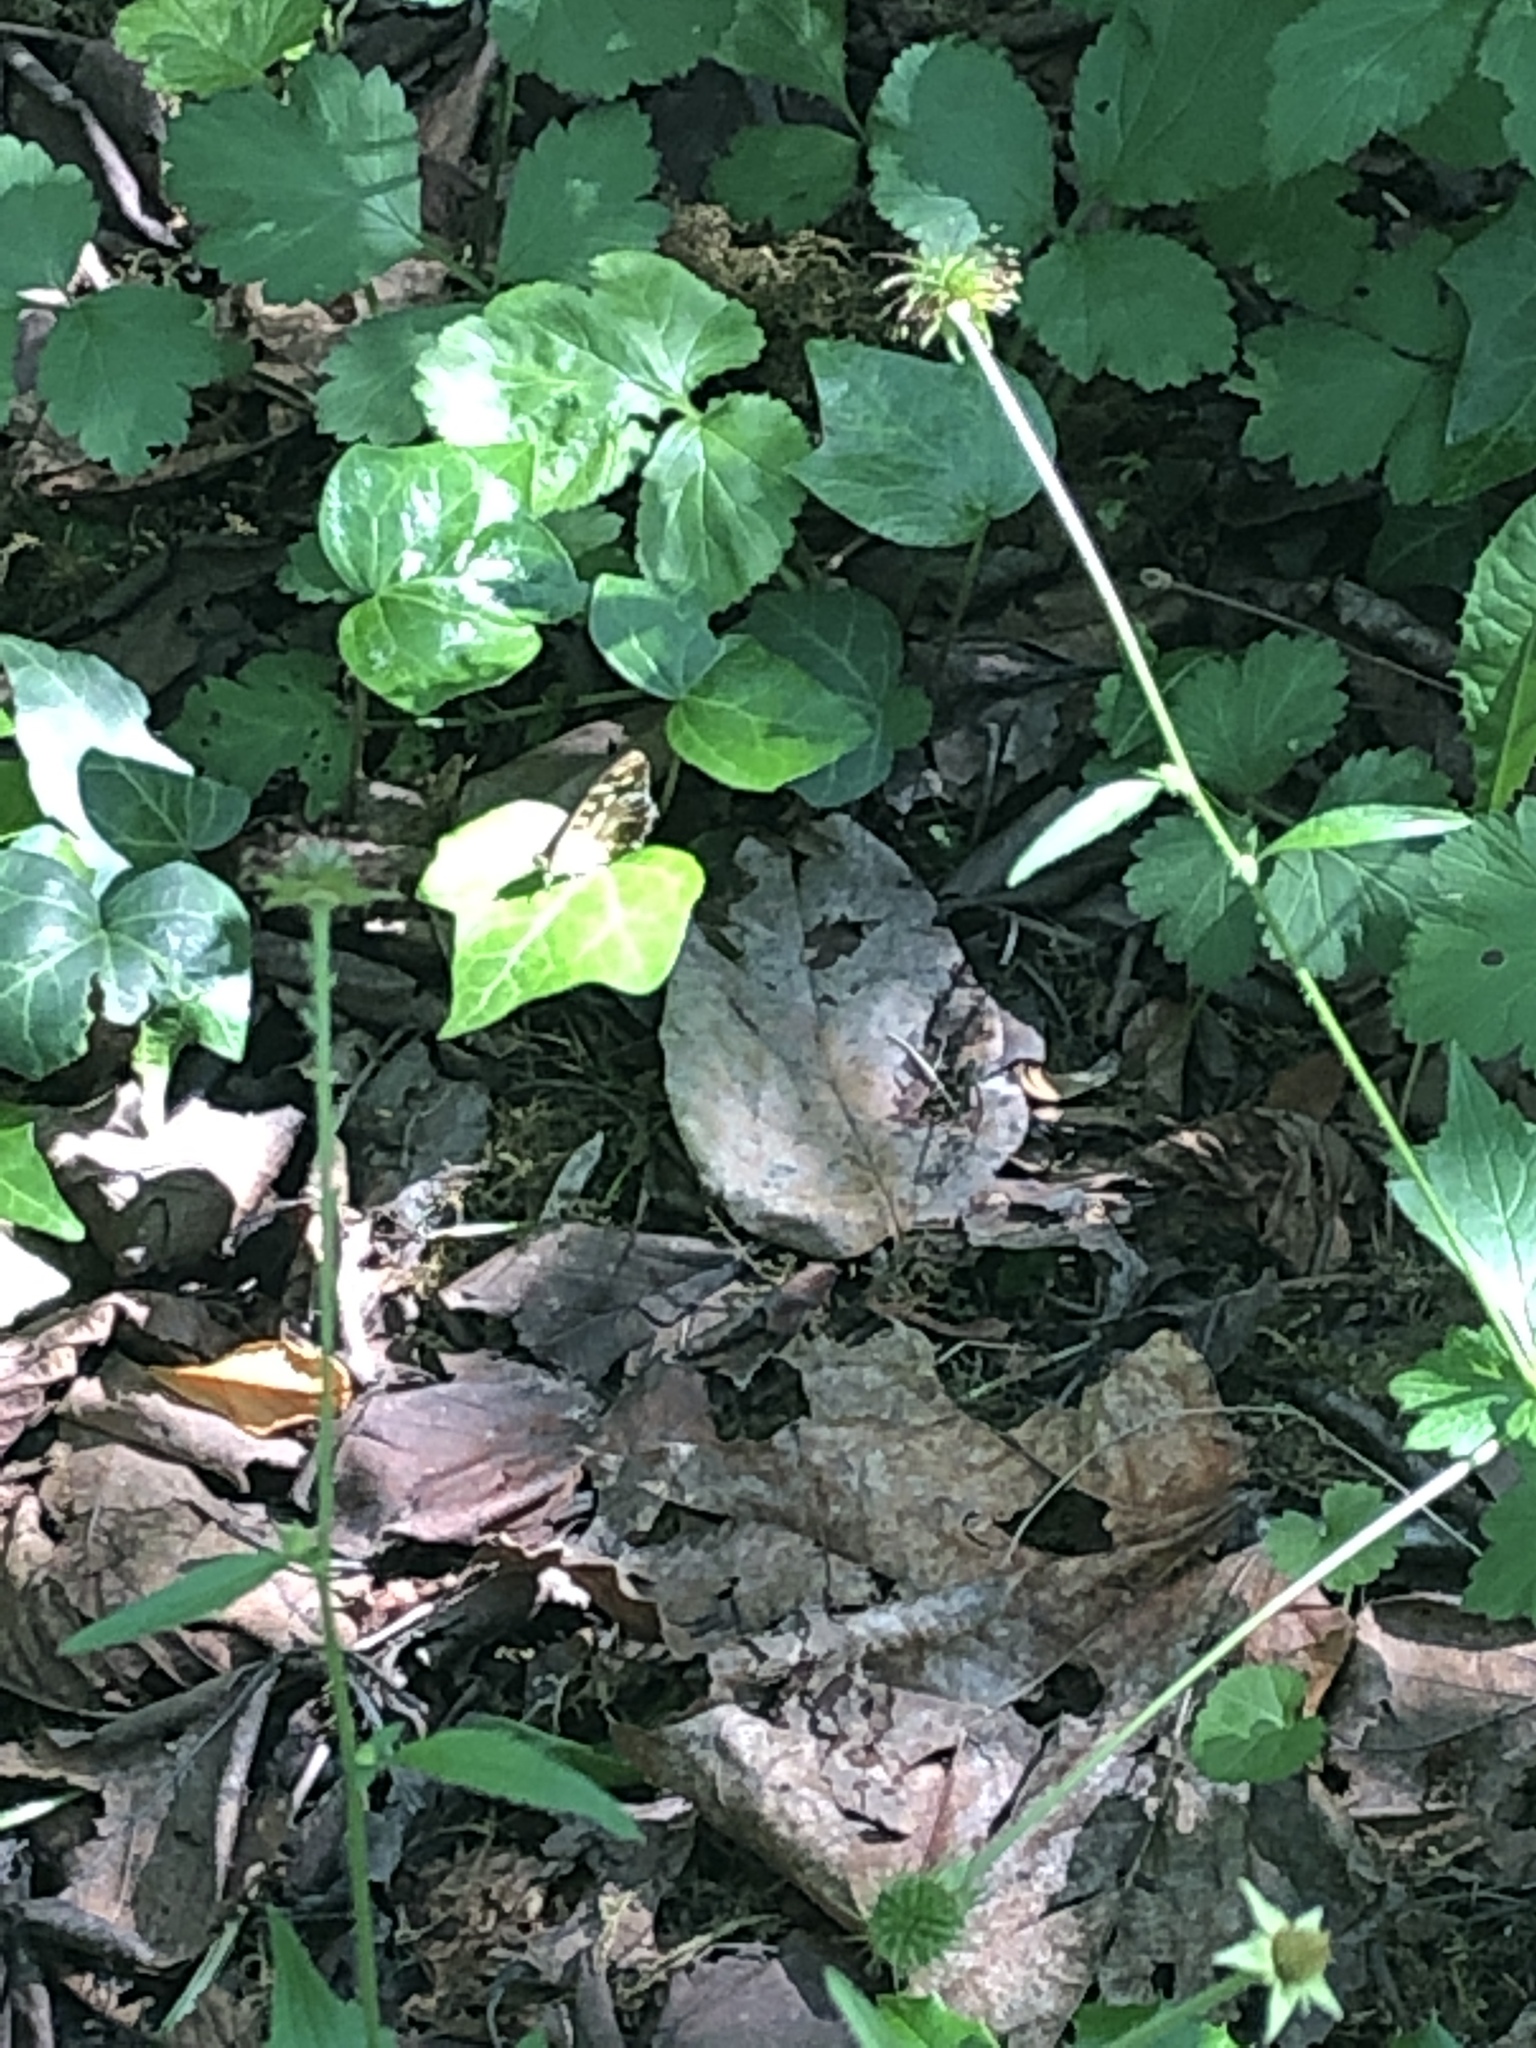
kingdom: Animalia
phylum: Arthropoda
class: Insecta
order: Lepidoptera
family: Nymphalidae
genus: Pararge
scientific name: Pararge aegeria
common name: Speckled wood
